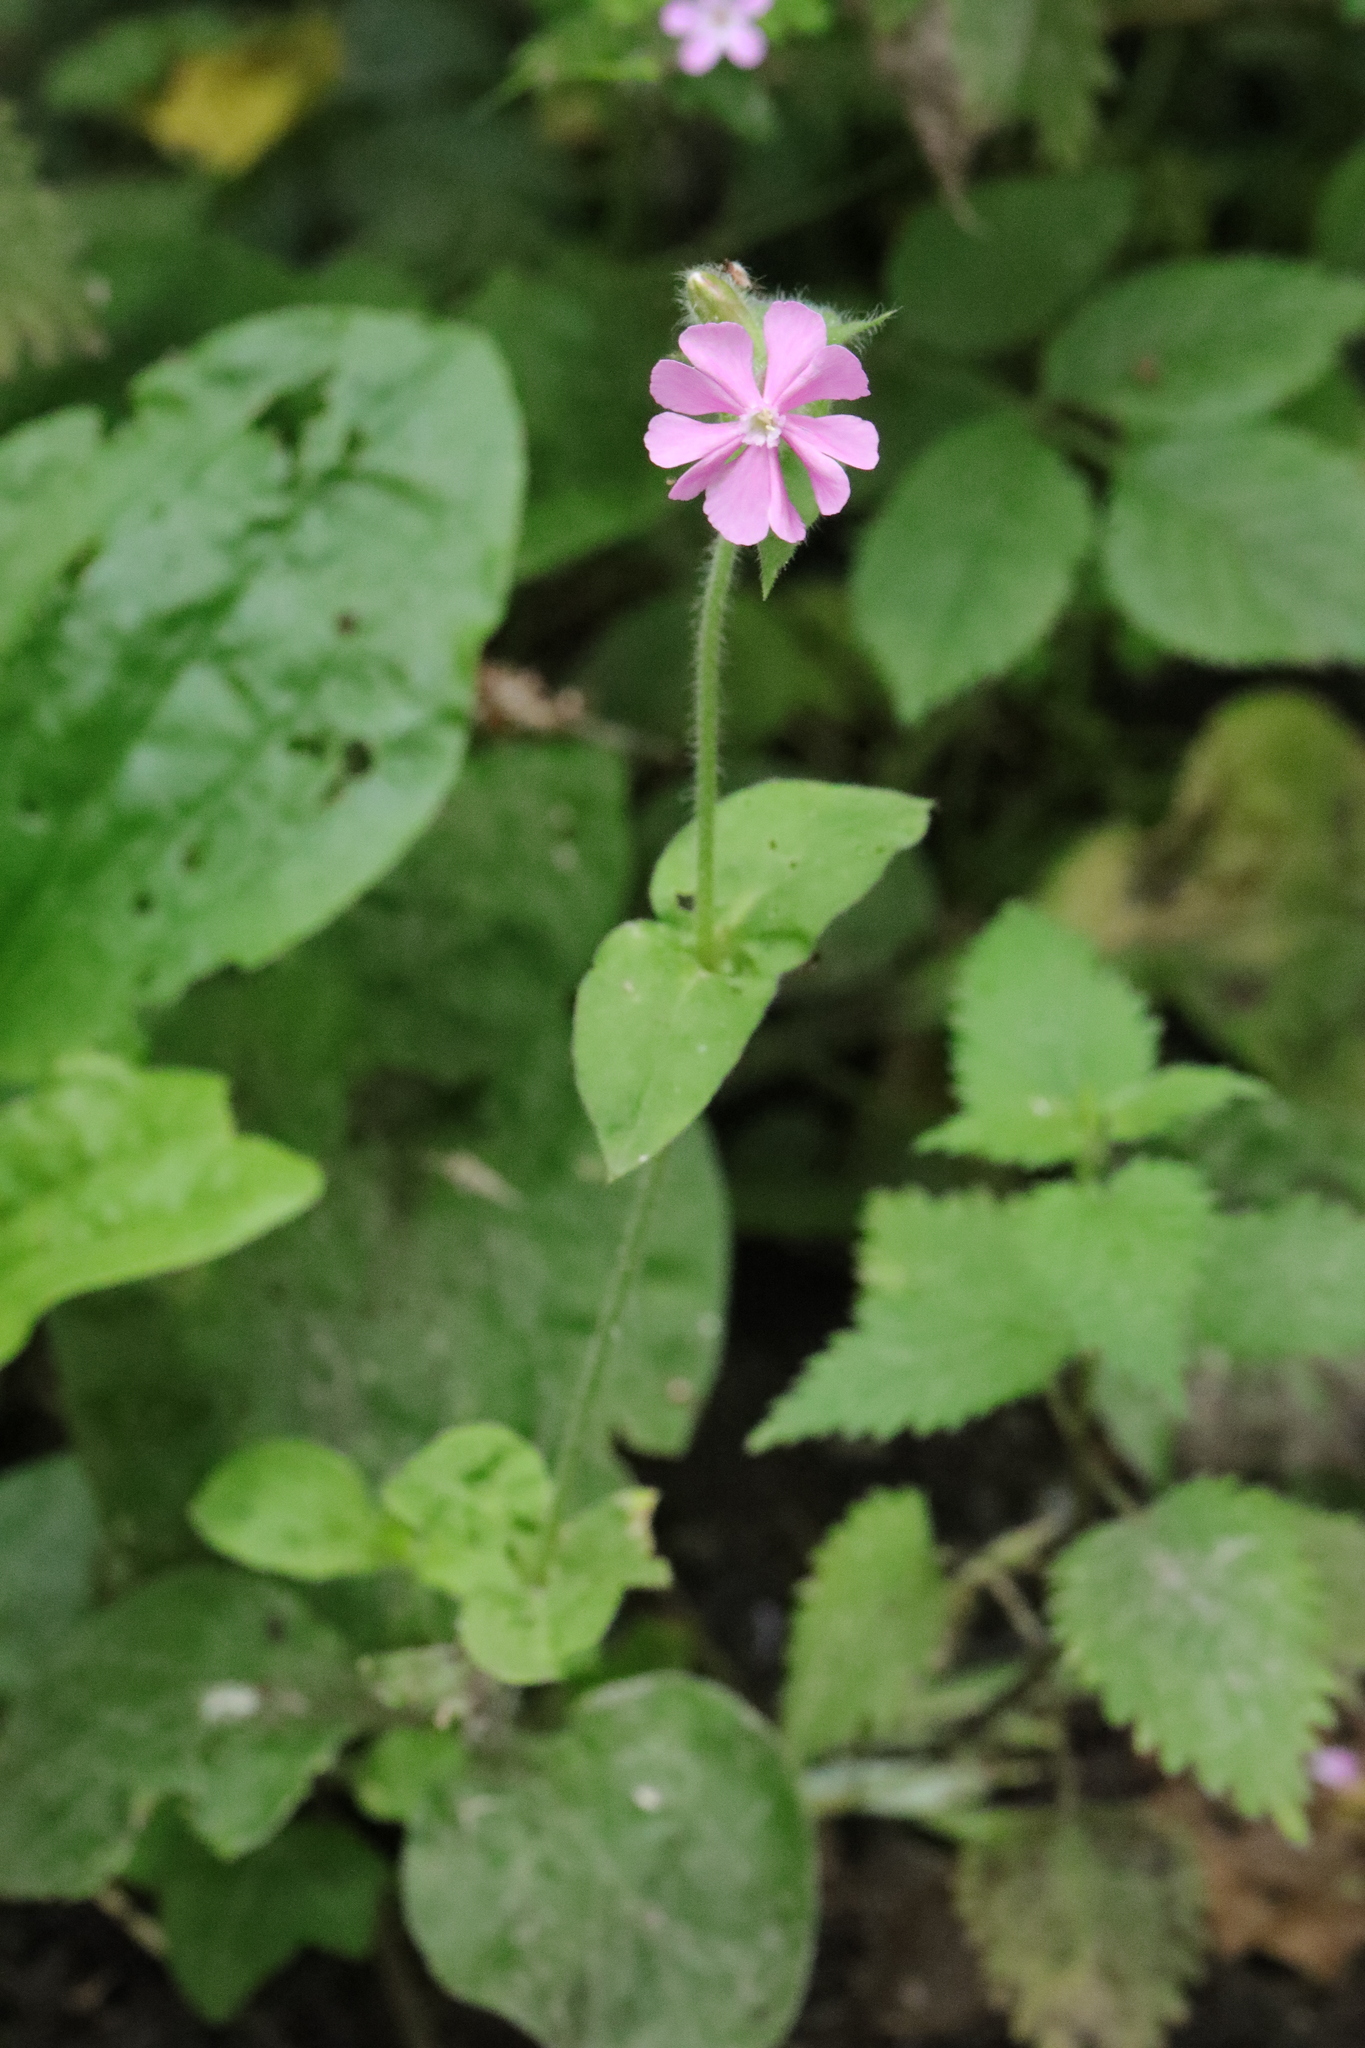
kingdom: Plantae
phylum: Tracheophyta
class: Magnoliopsida
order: Caryophyllales
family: Caryophyllaceae
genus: Silene
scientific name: Silene dioica
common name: Red campion
